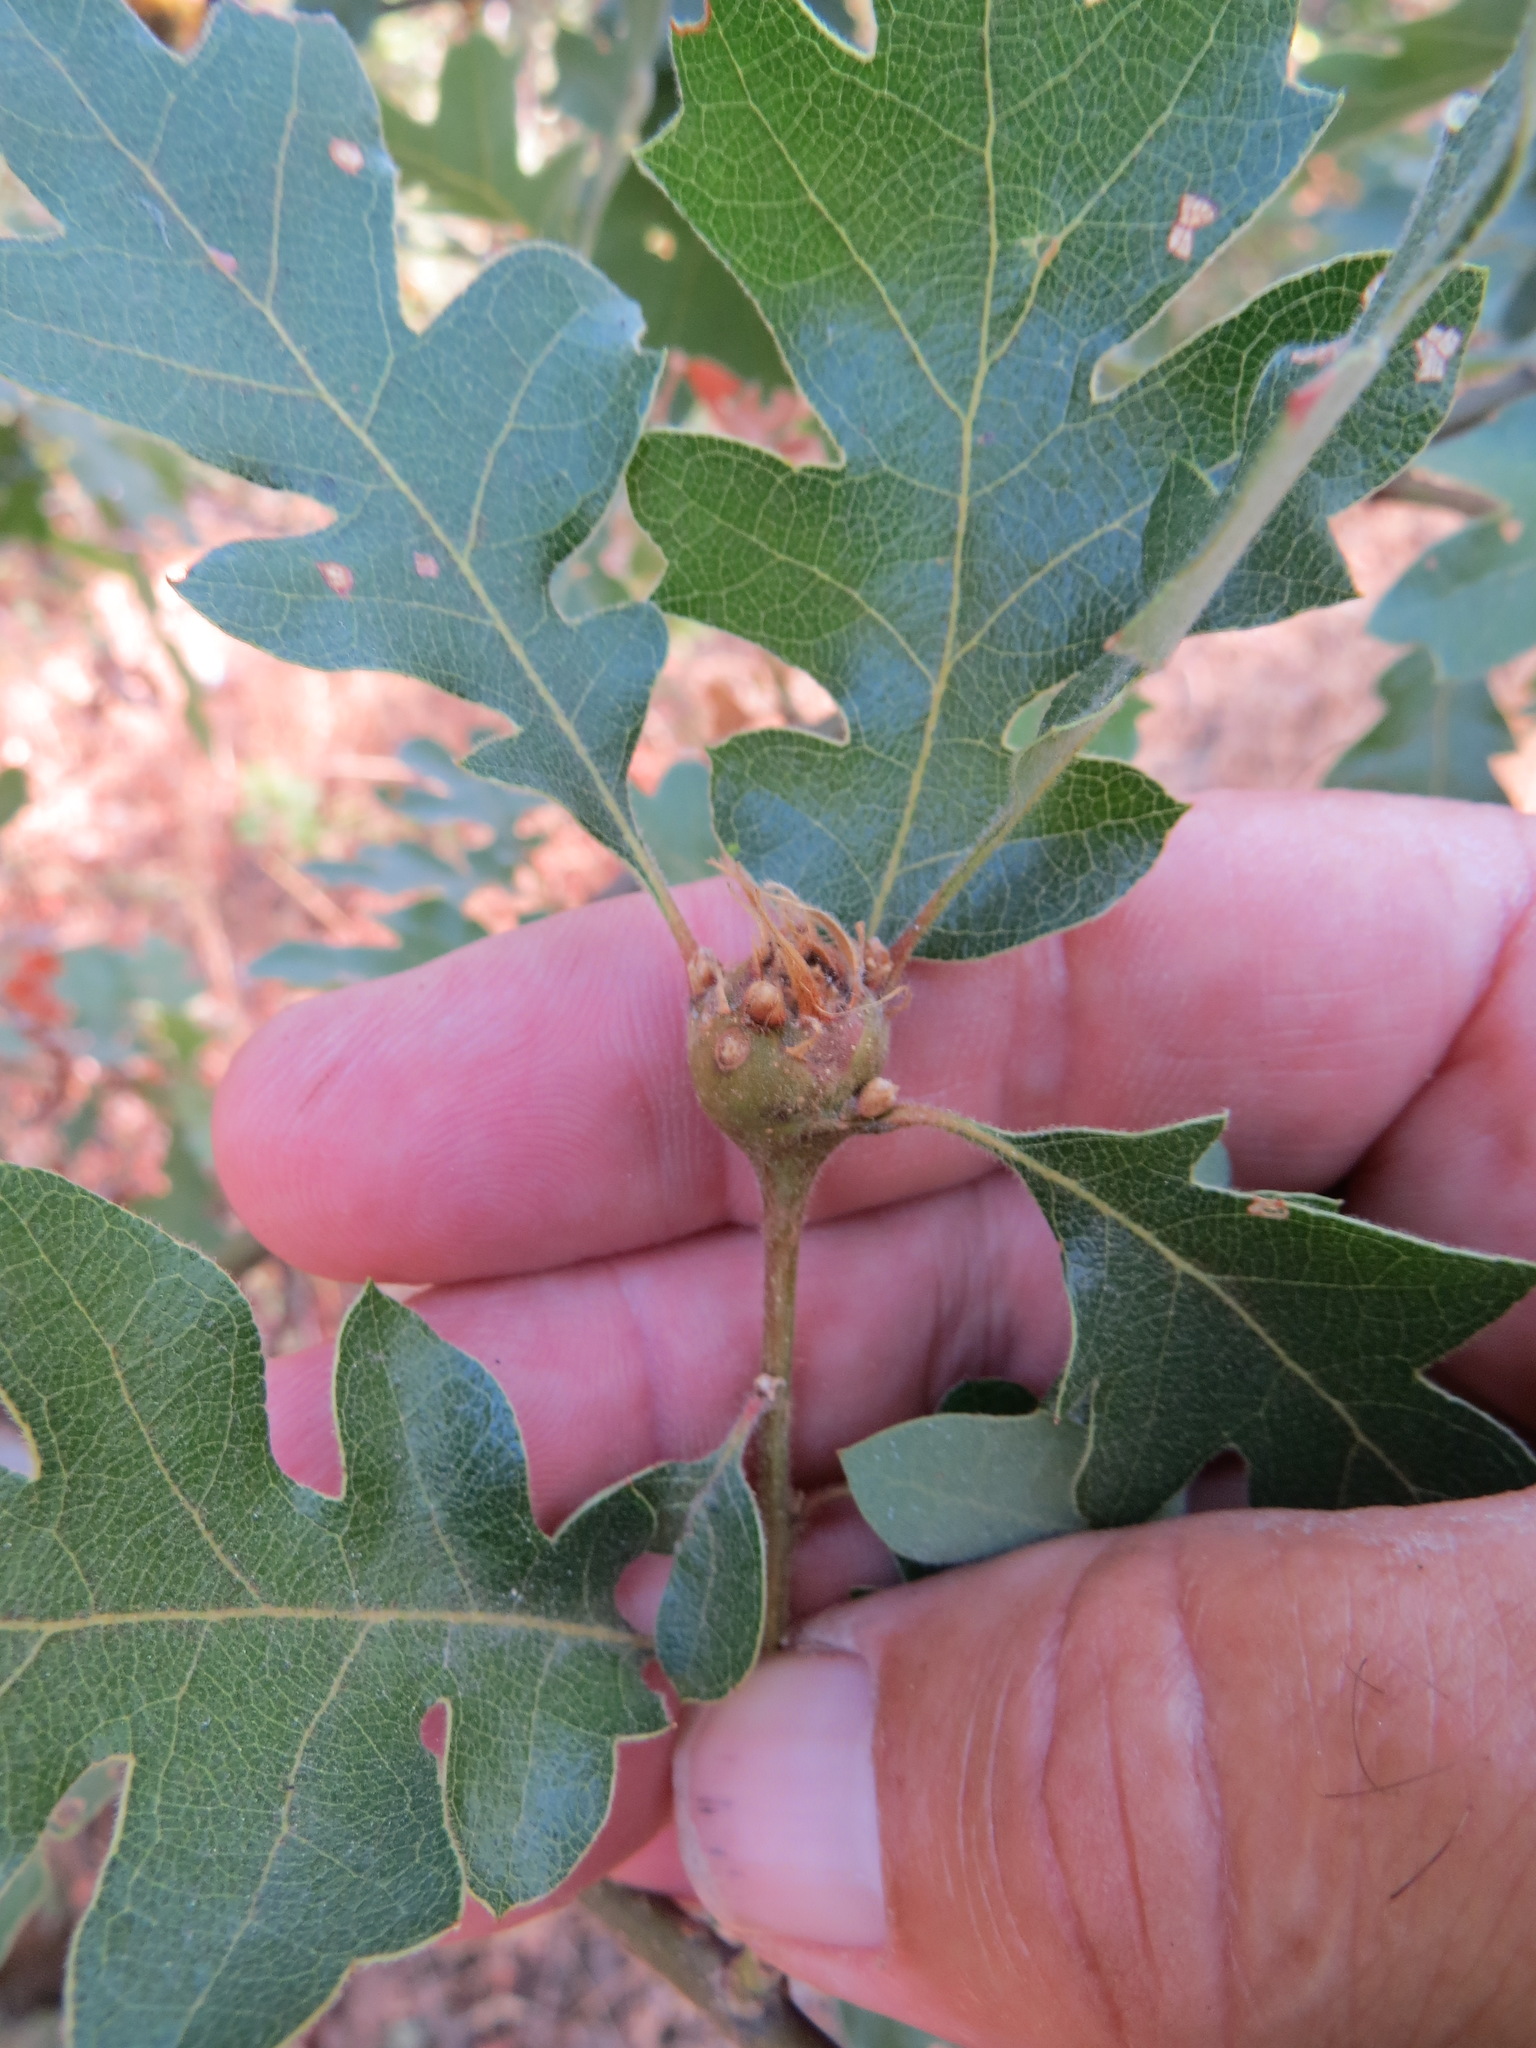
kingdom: Animalia
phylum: Arthropoda
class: Insecta
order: Hymenoptera
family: Cynipidae
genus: Andricus
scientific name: Andricus
